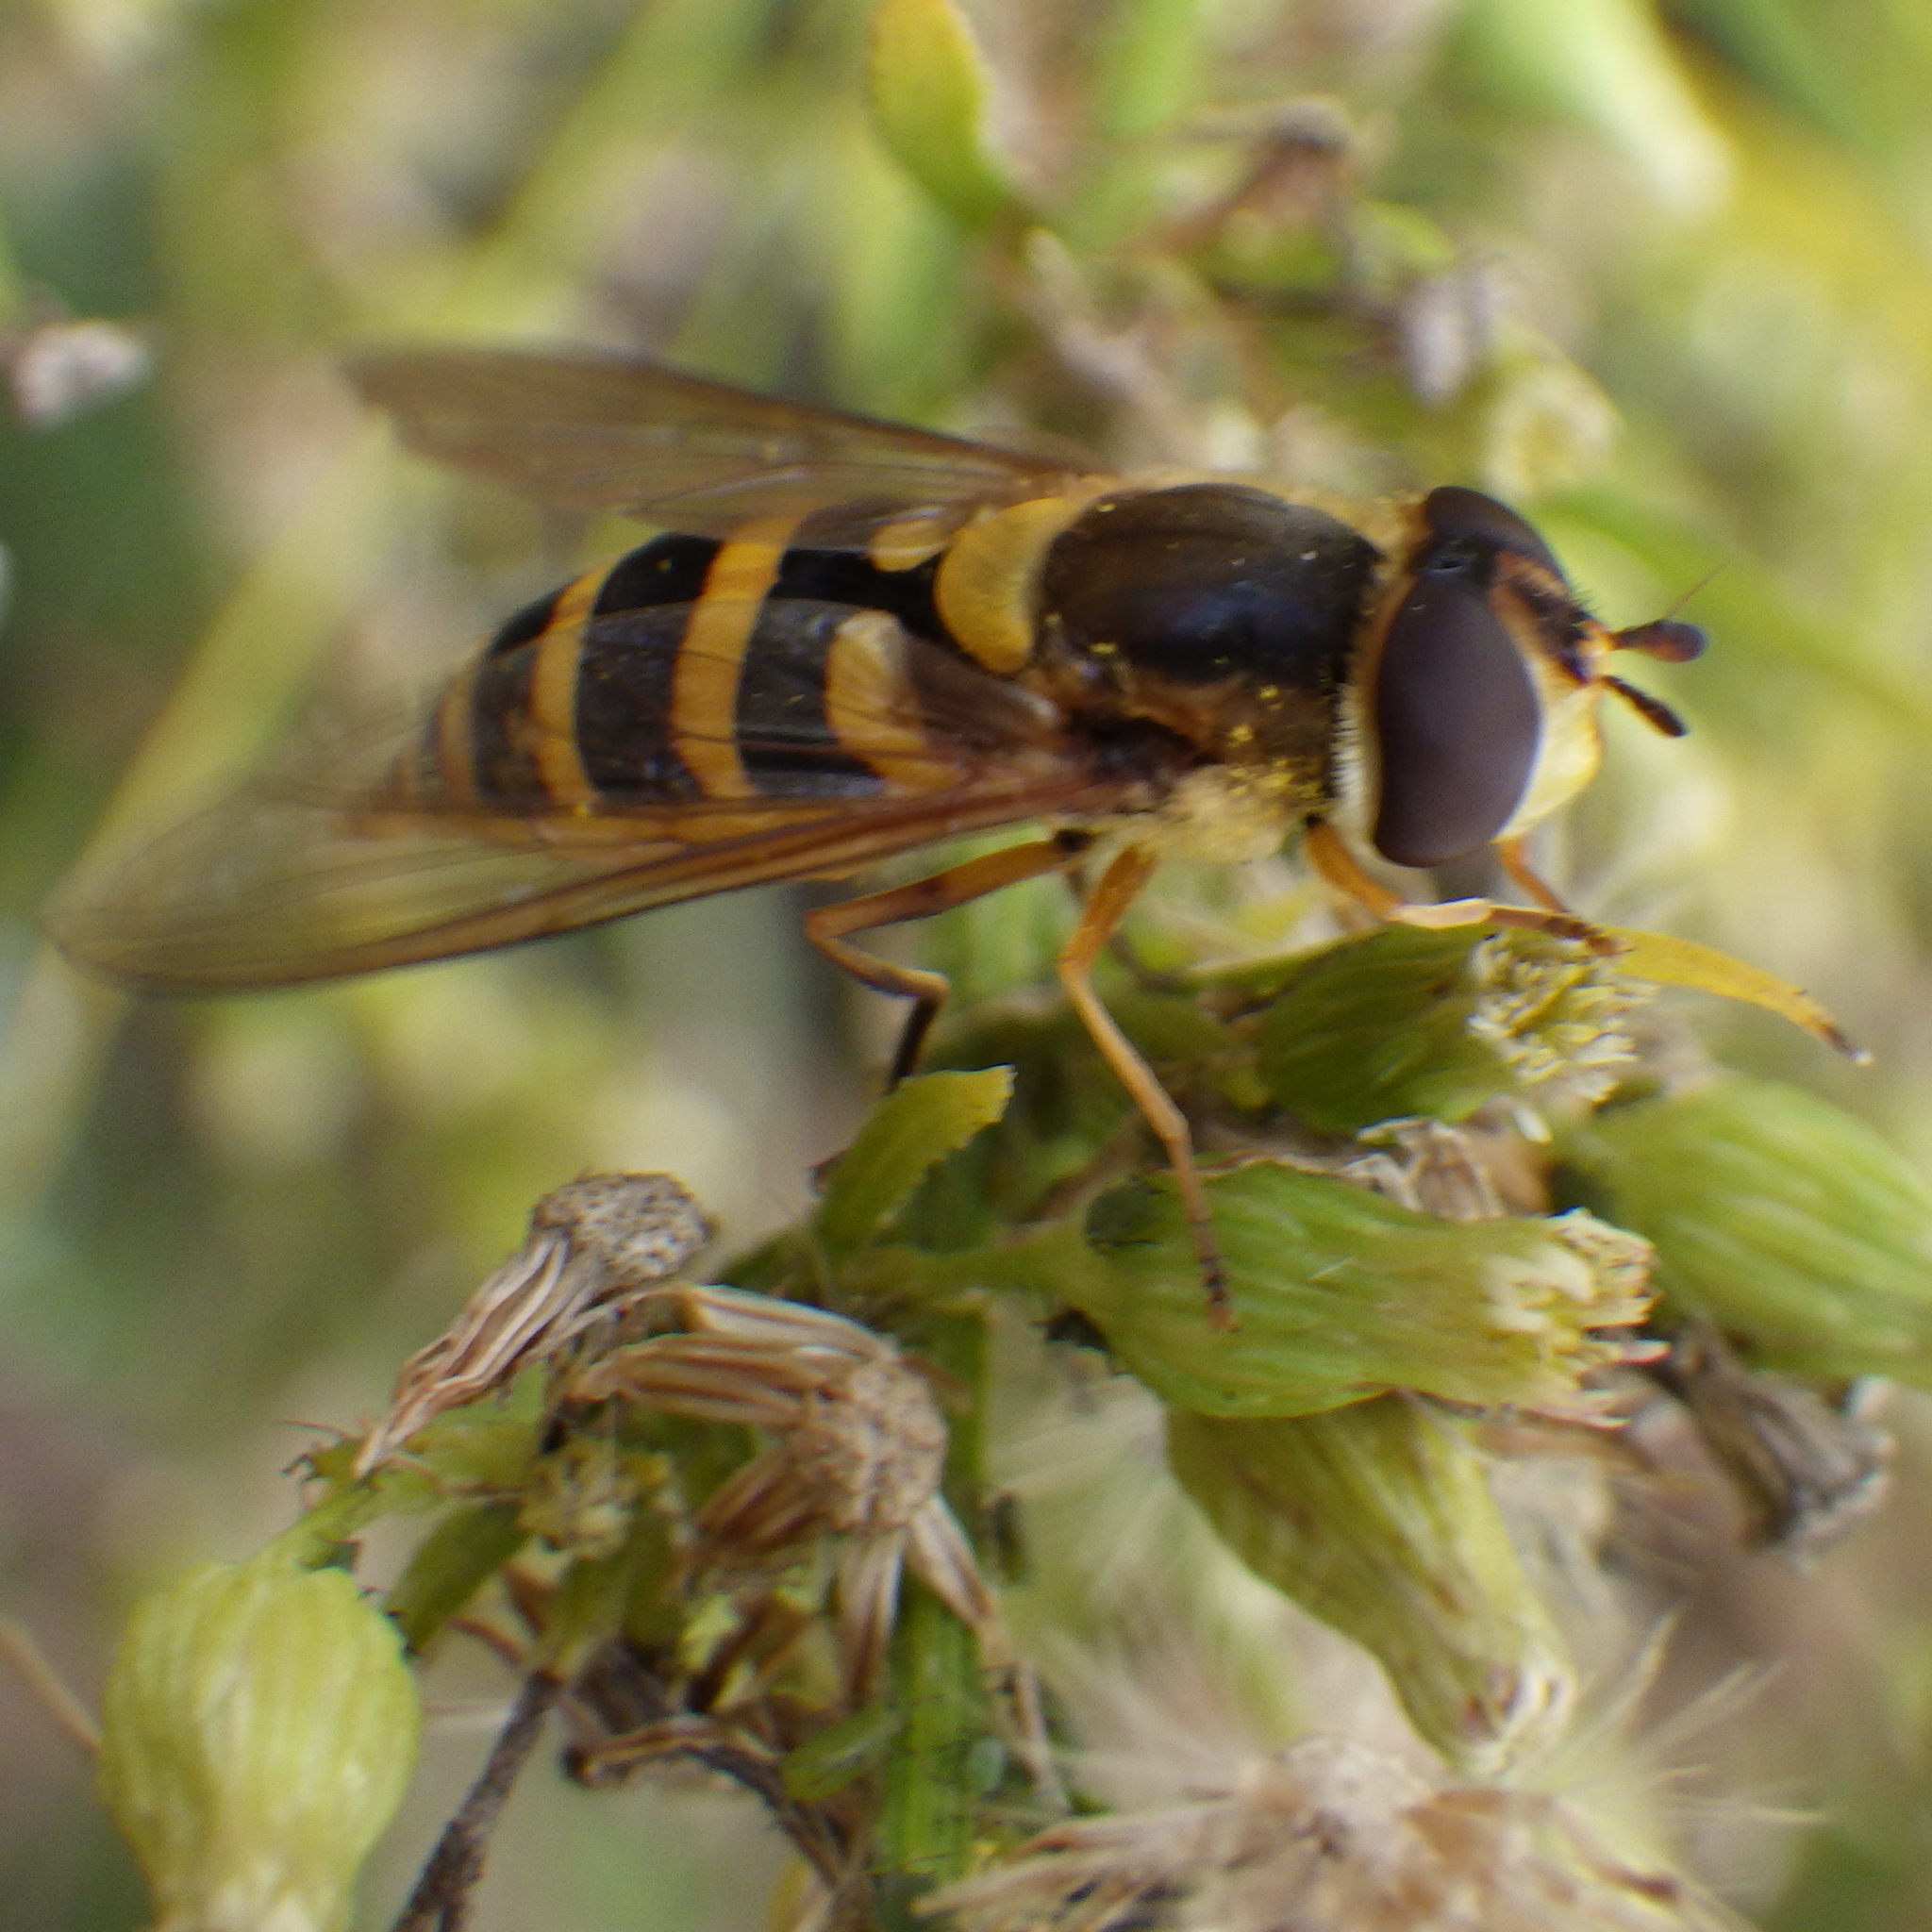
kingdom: Animalia
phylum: Arthropoda
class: Insecta
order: Diptera
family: Syrphidae
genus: Syrphus
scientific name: Syrphus rectus
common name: Yellow-legged flower fly
